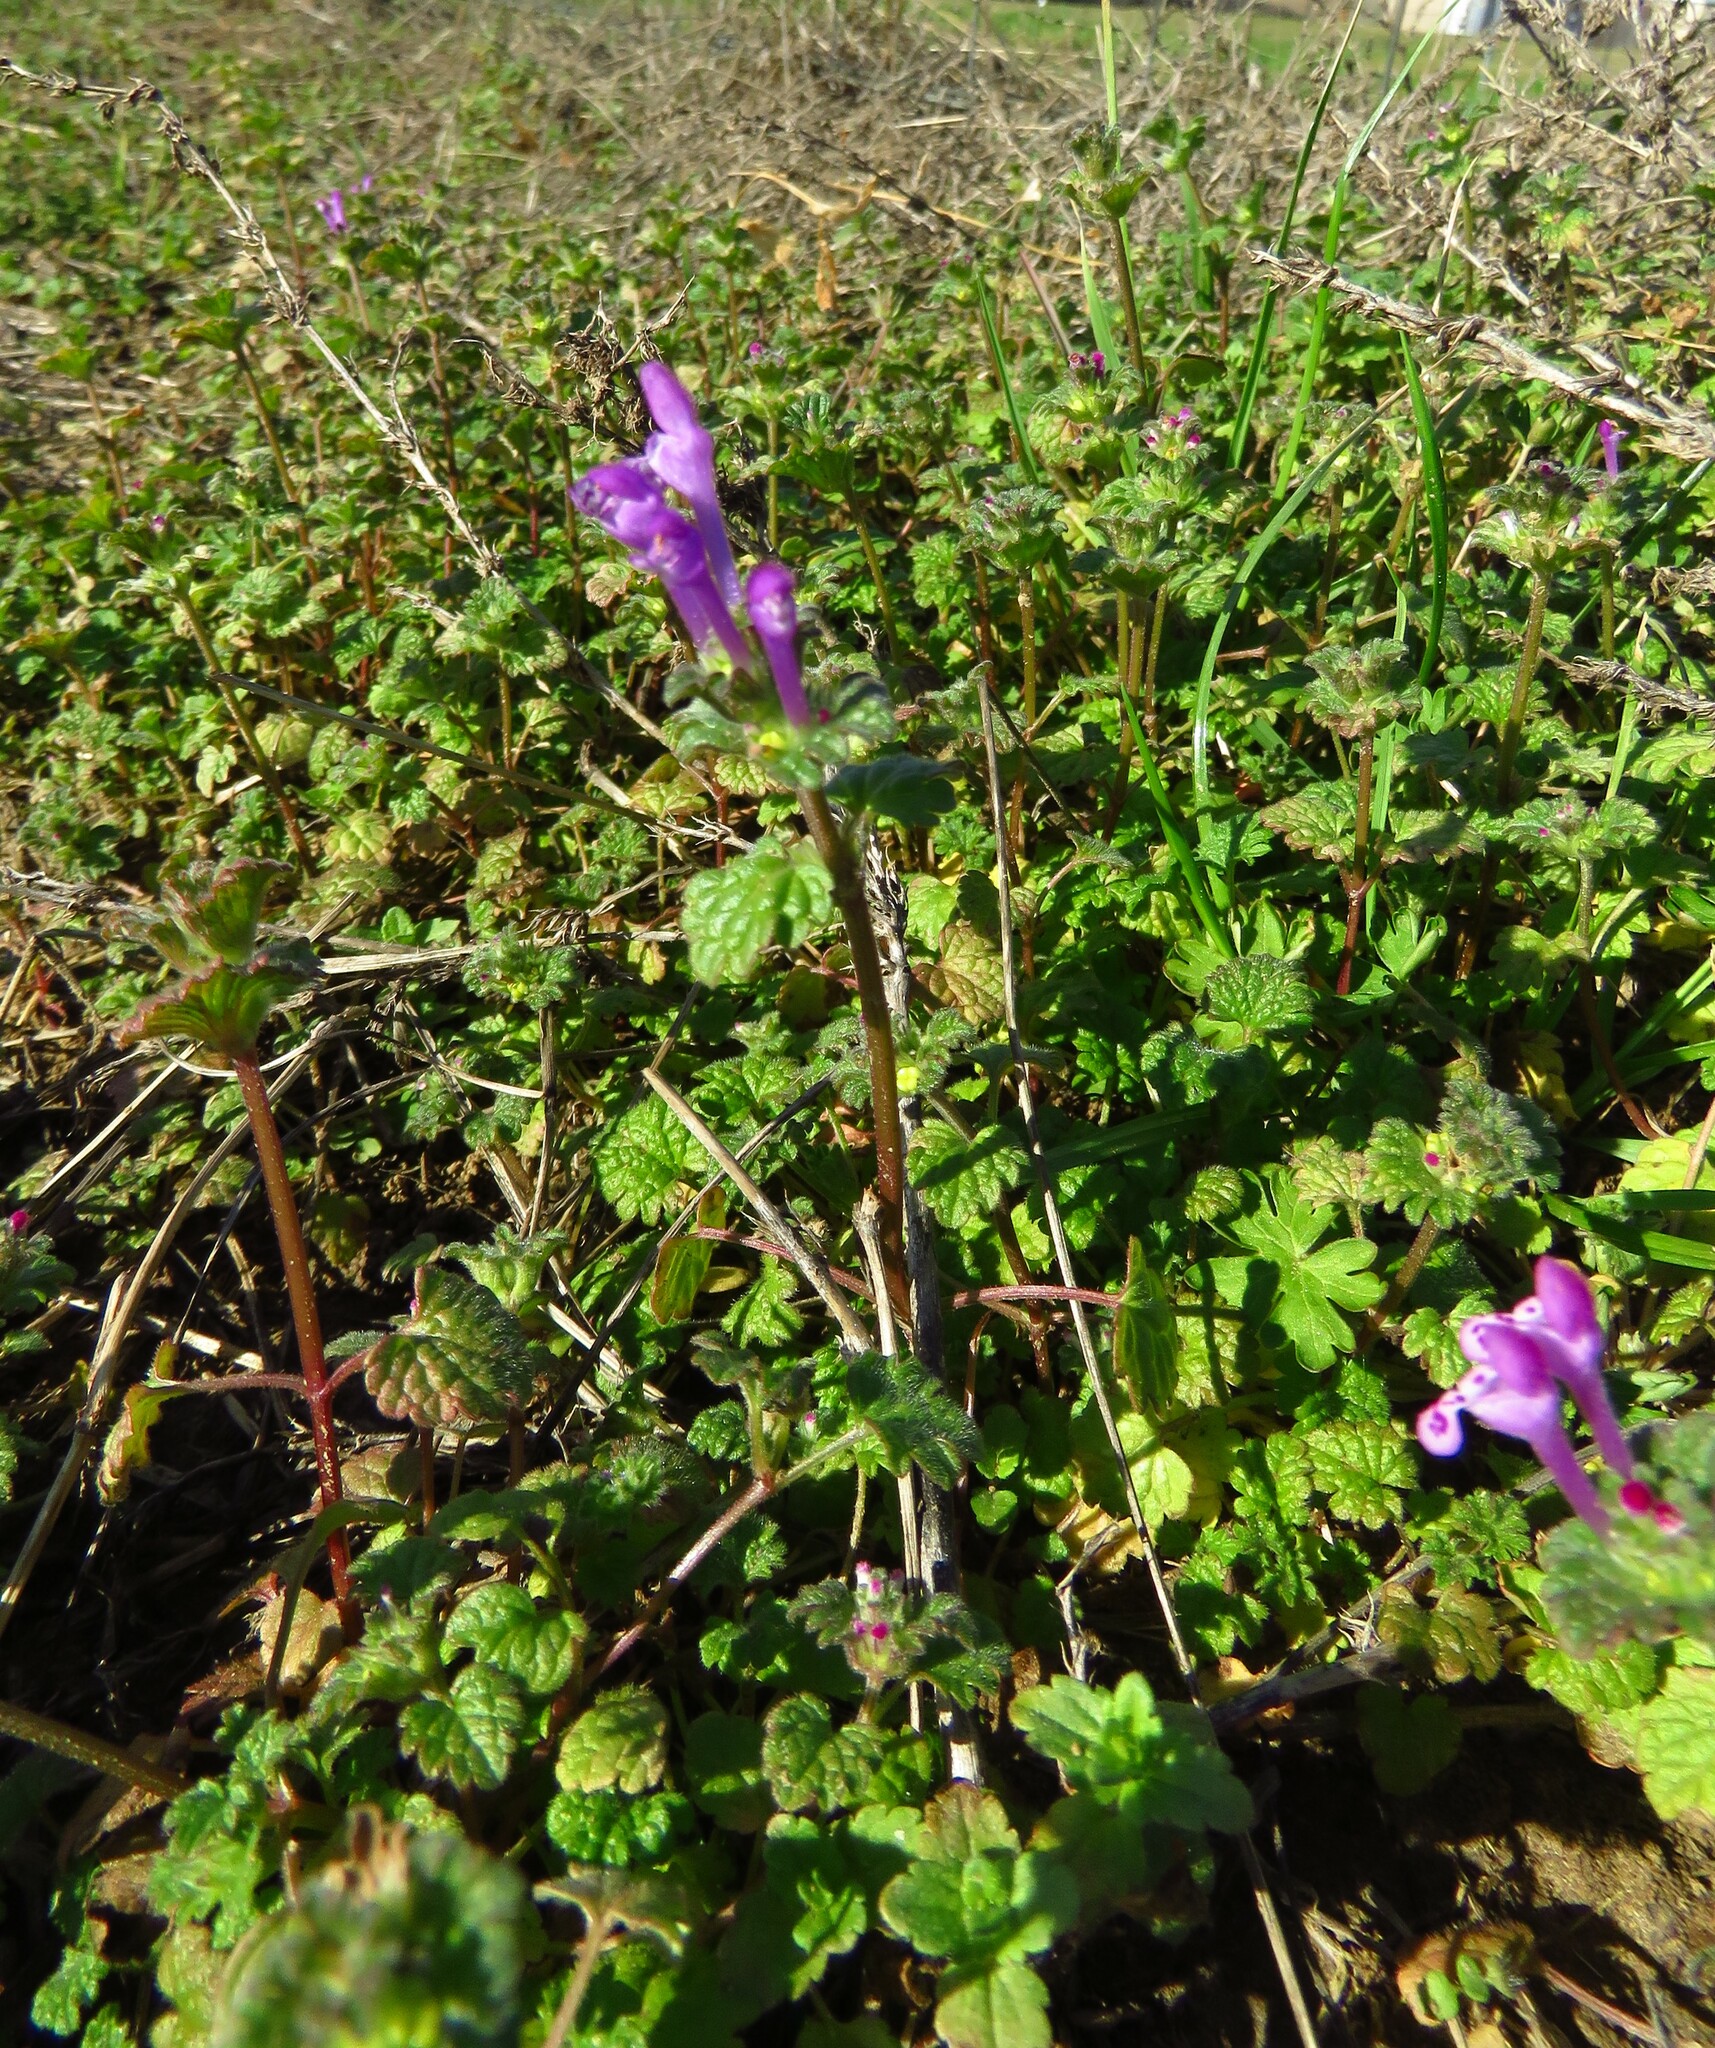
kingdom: Plantae
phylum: Tracheophyta
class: Magnoliopsida
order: Lamiales
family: Lamiaceae
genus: Lamium
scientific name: Lamium amplexicaule
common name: Henbit dead-nettle
